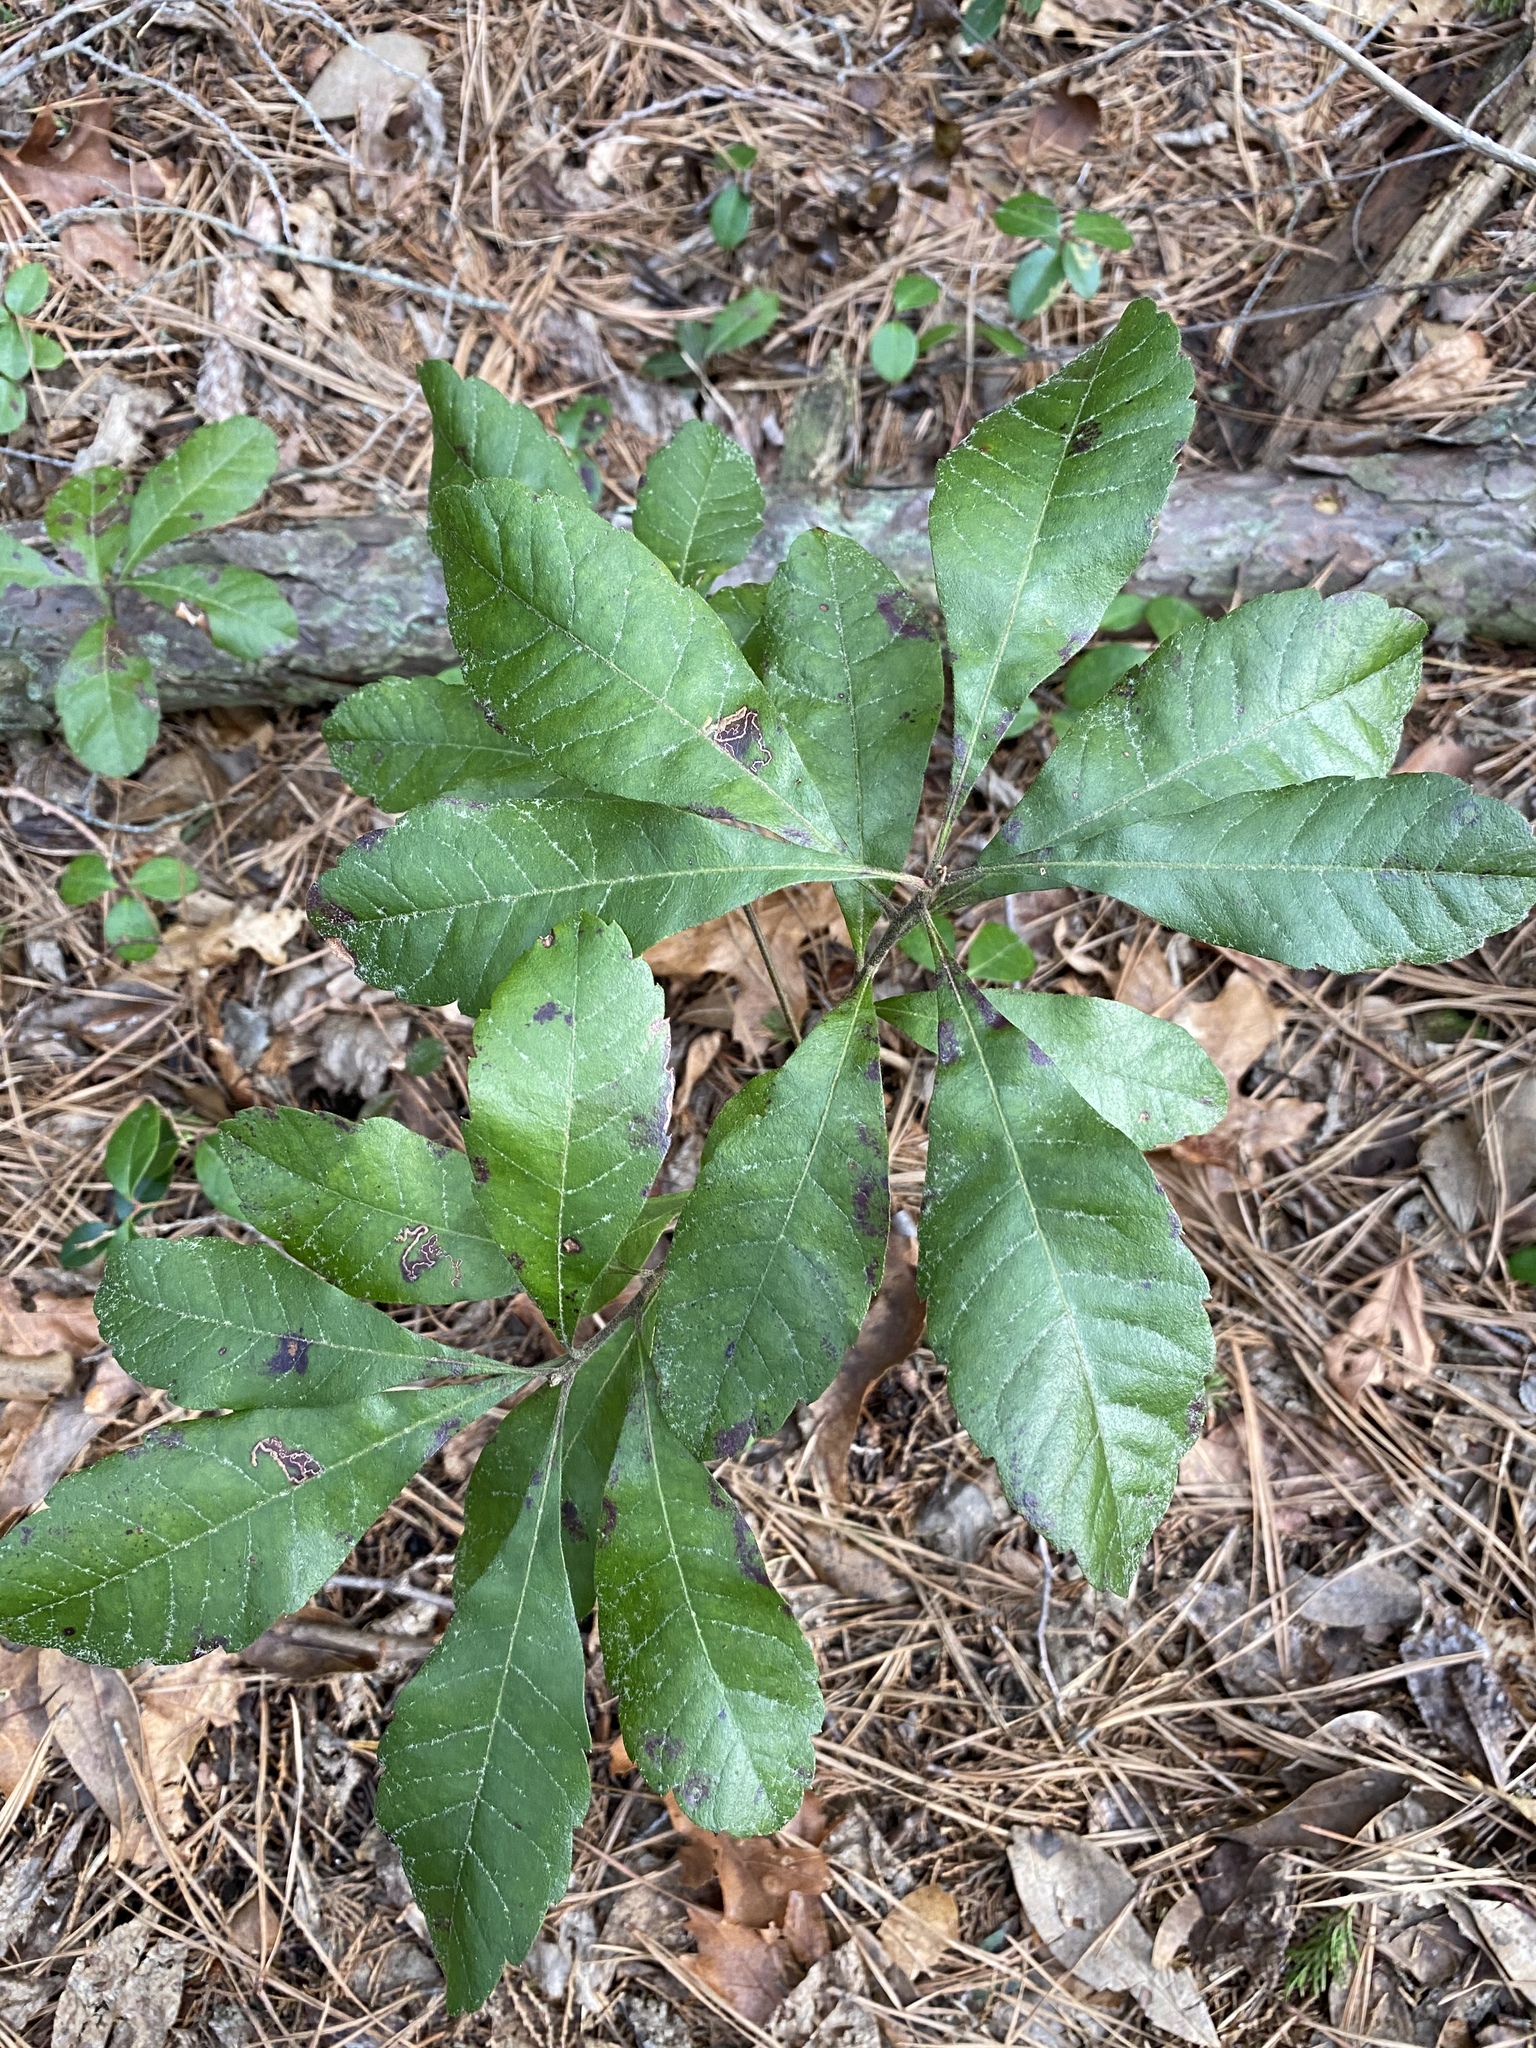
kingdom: Plantae
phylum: Tracheophyta
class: Magnoliopsida
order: Fagales
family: Myricaceae
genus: Morella
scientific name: Morella caroliniensis
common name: Evergreen bayberry
